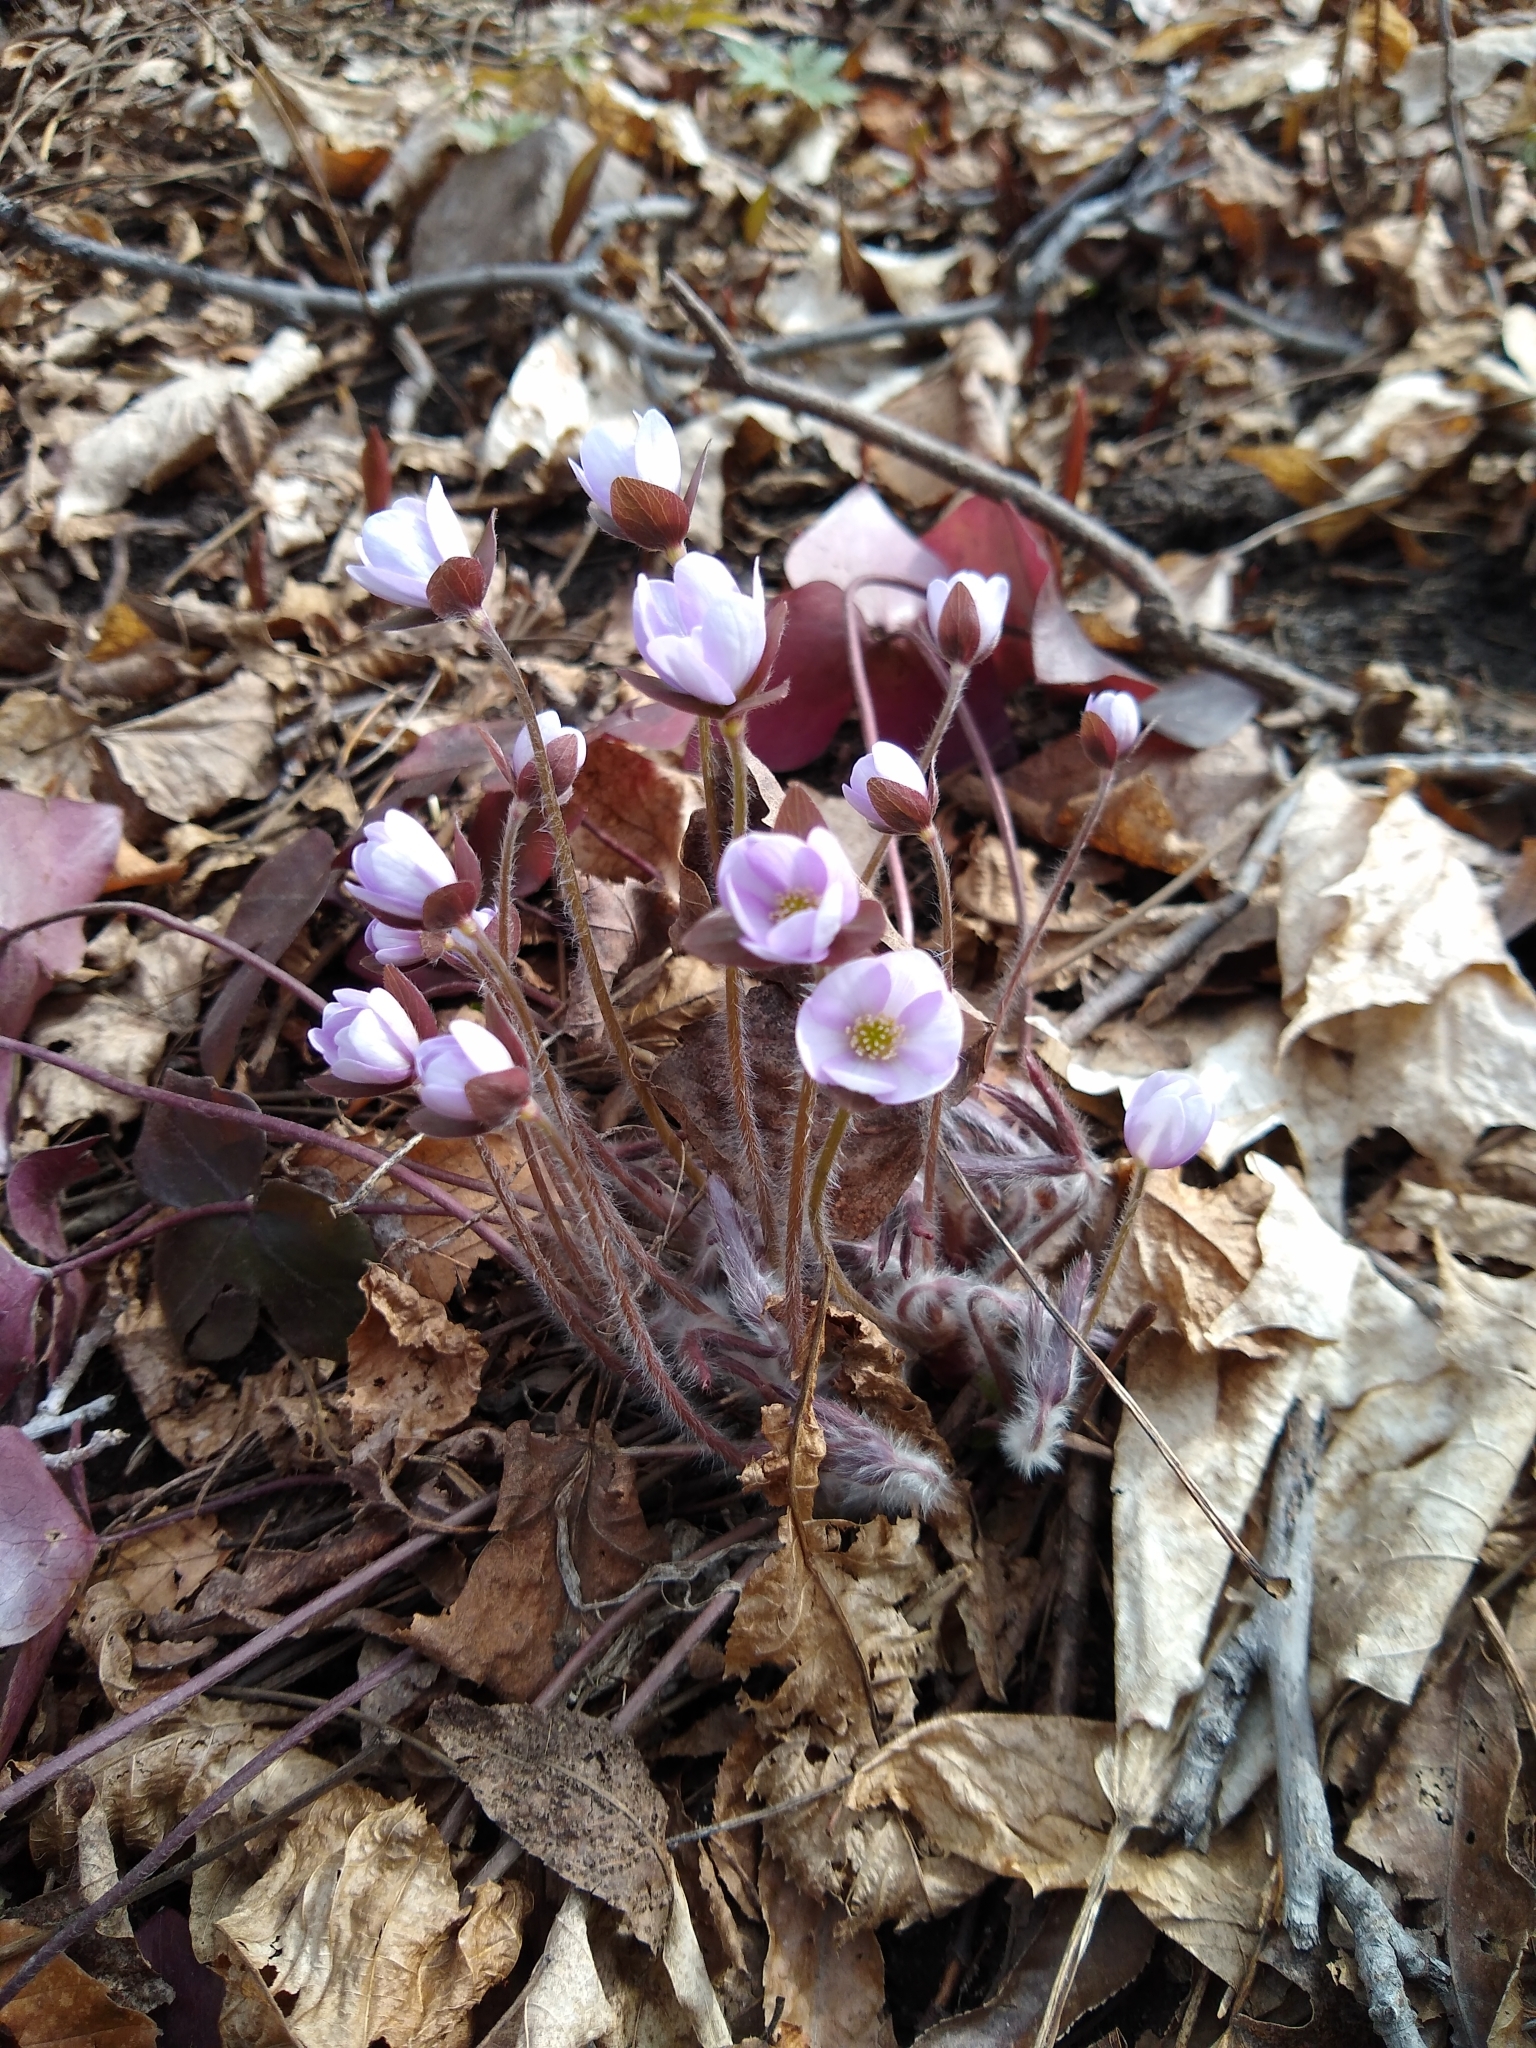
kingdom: Plantae
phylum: Tracheophyta
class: Magnoliopsida
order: Ranunculales
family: Ranunculaceae
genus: Hepatica
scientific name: Hepatica acutiloba
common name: Sharp-lobed hepatica
